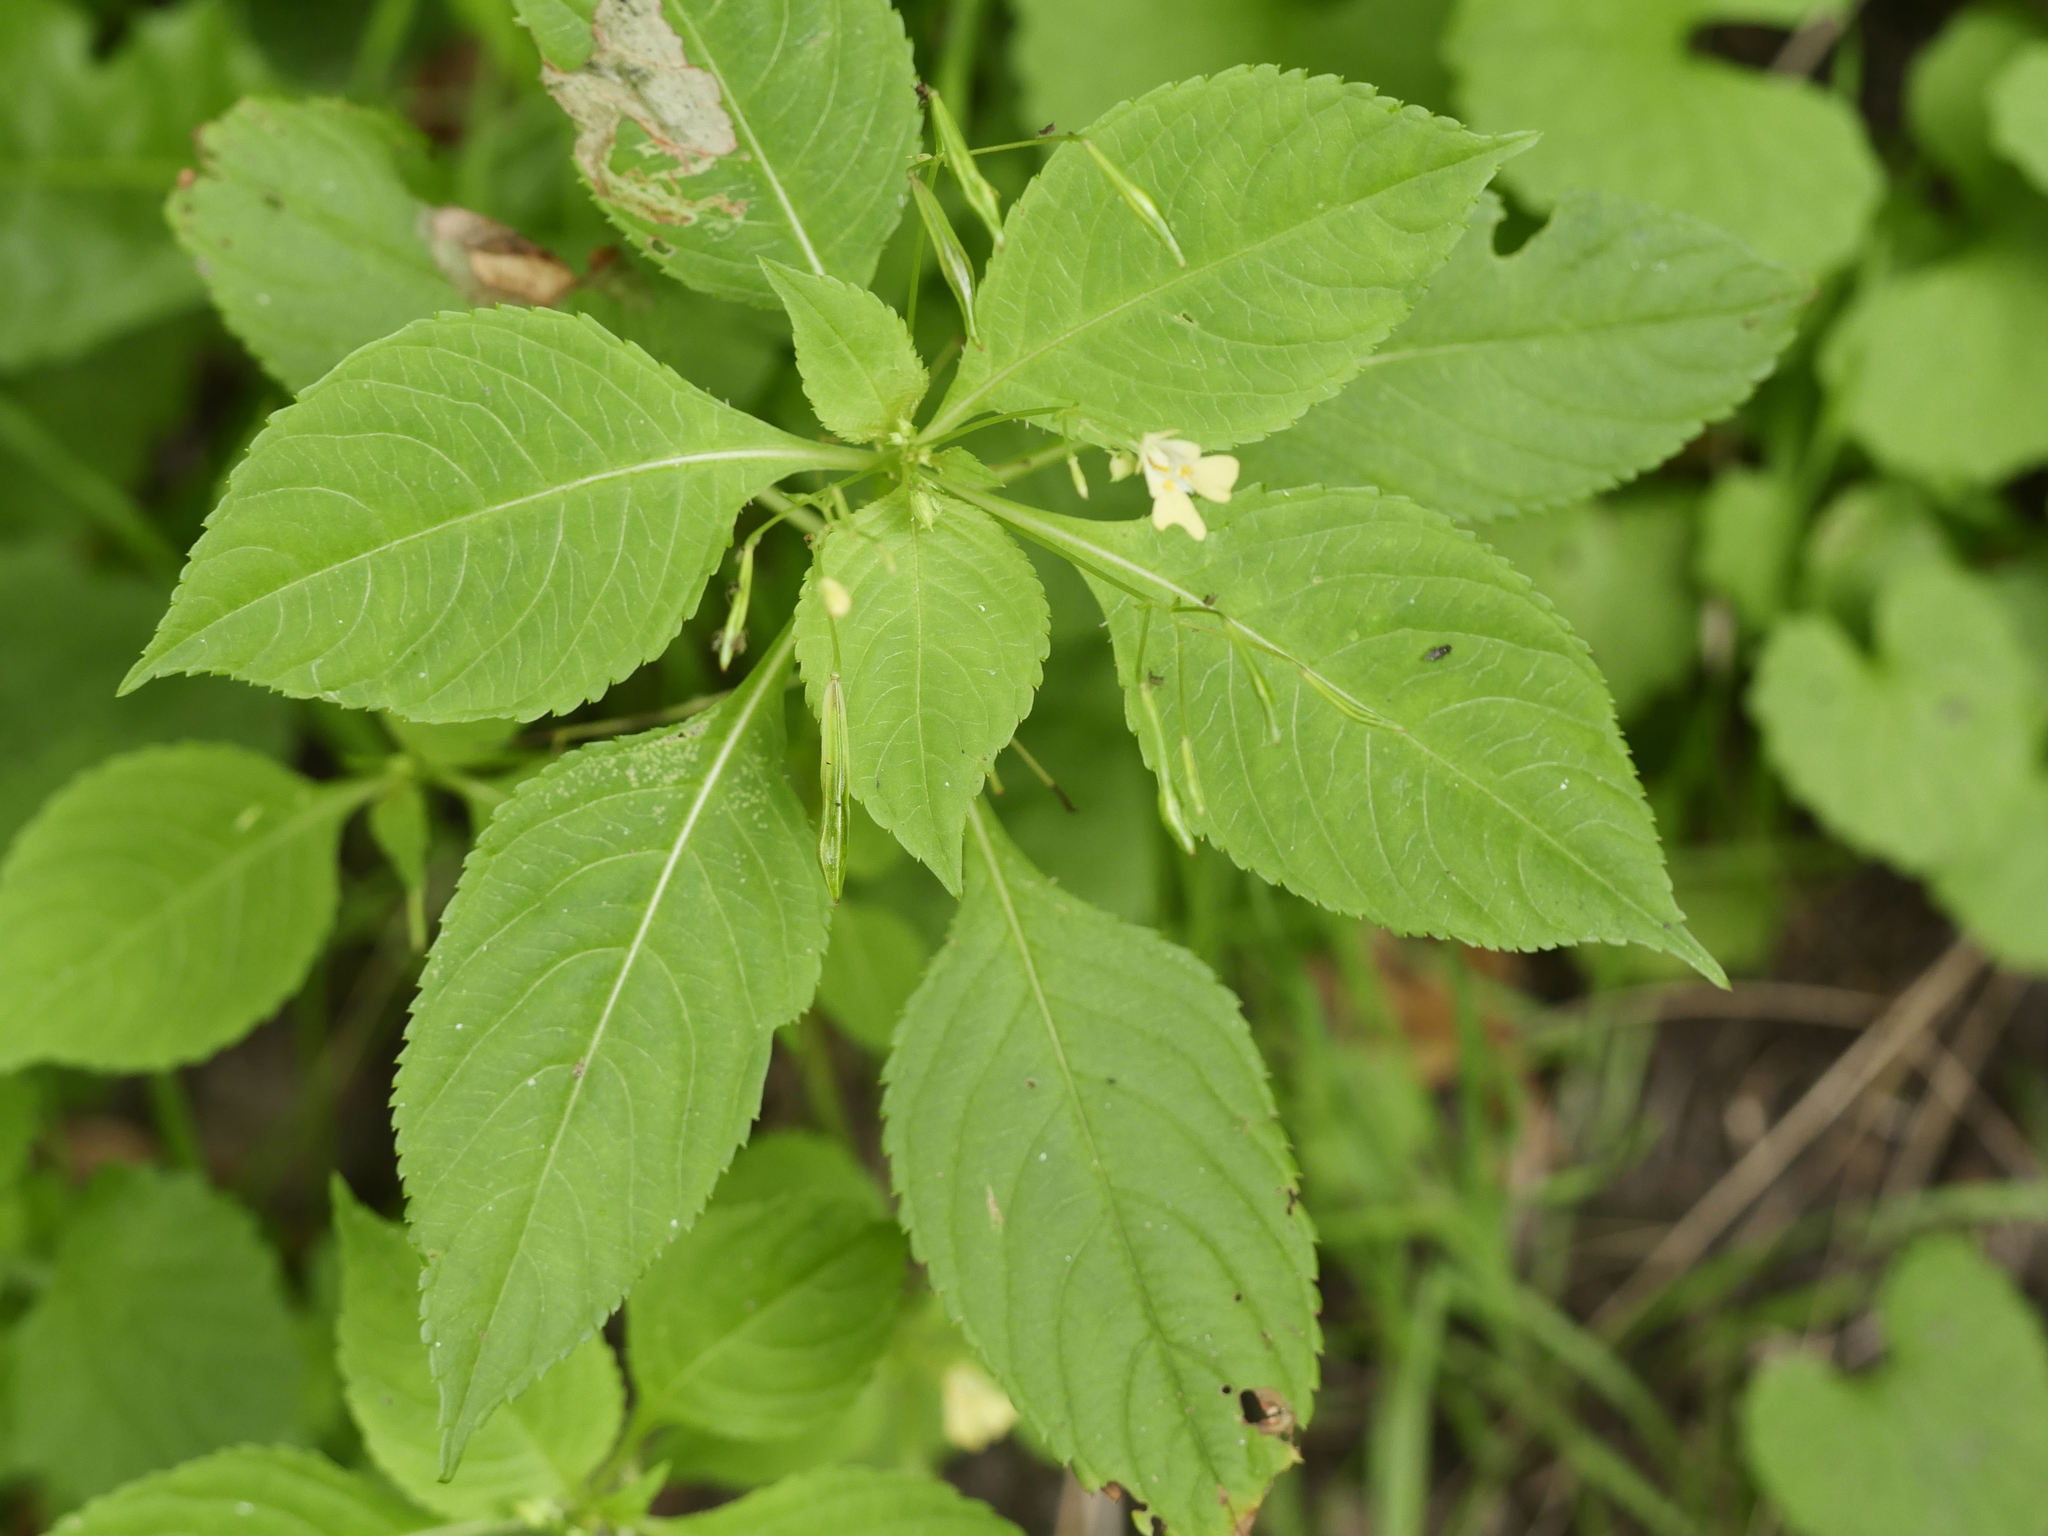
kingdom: Plantae
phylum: Tracheophyta
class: Magnoliopsida
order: Ericales
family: Balsaminaceae
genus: Impatiens
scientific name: Impatiens parviflora
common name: Small balsam
